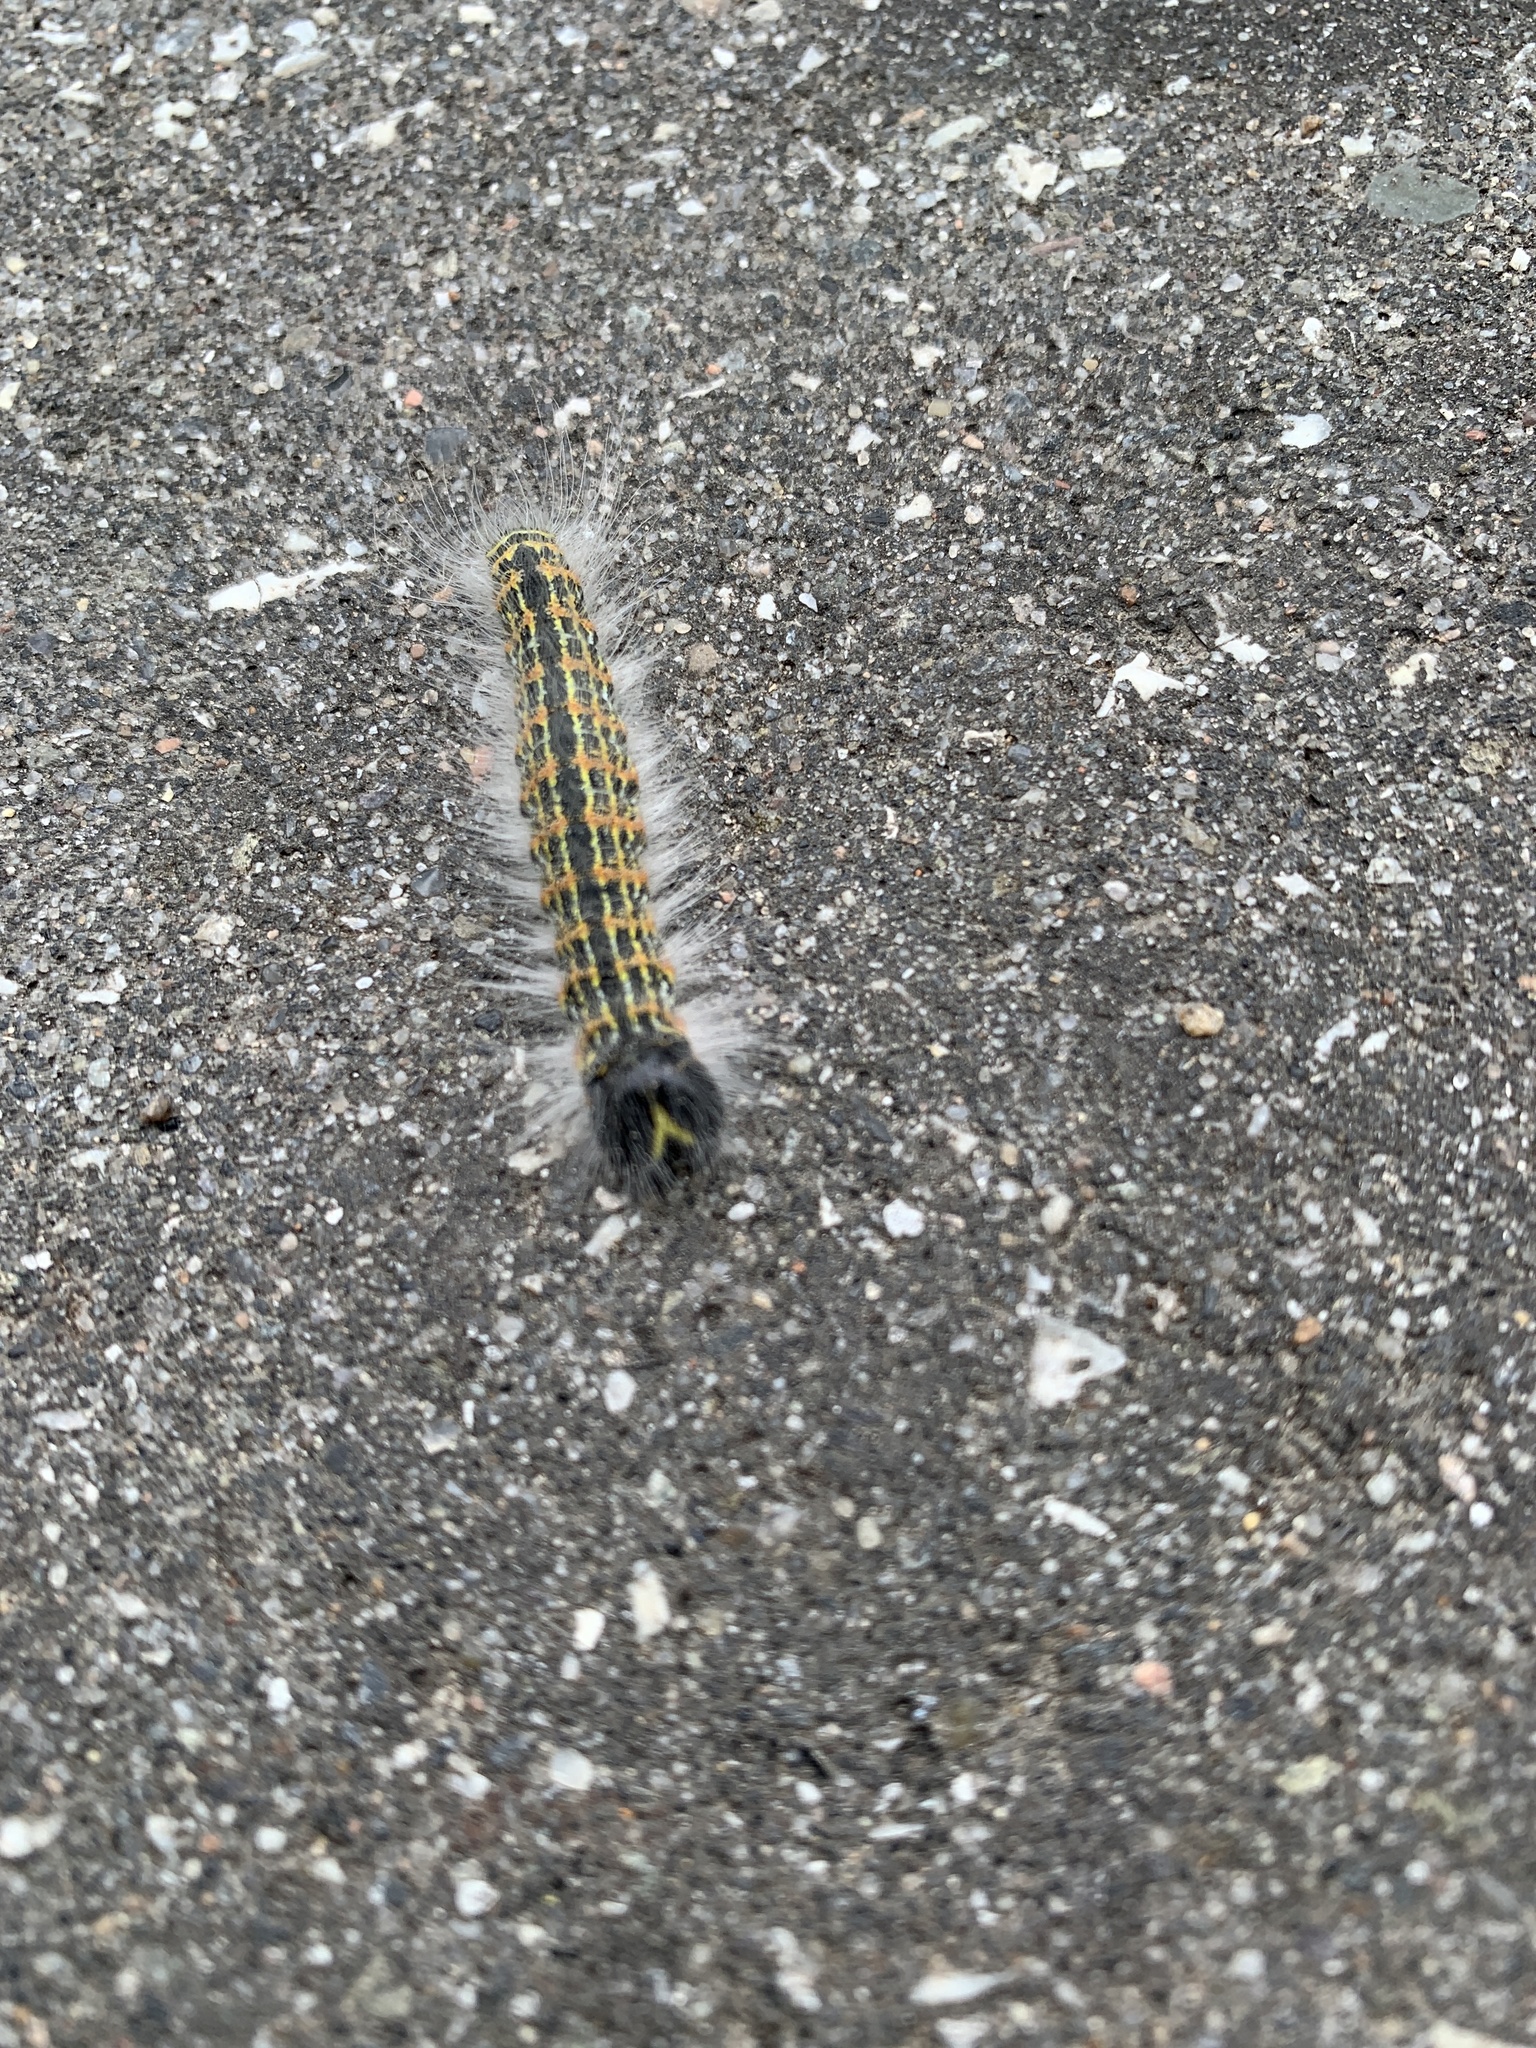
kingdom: Animalia
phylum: Arthropoda
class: Insecta
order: Lepidoptera
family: Notodontidae
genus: Phalera
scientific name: Phalera bucephala
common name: Buff-tip
